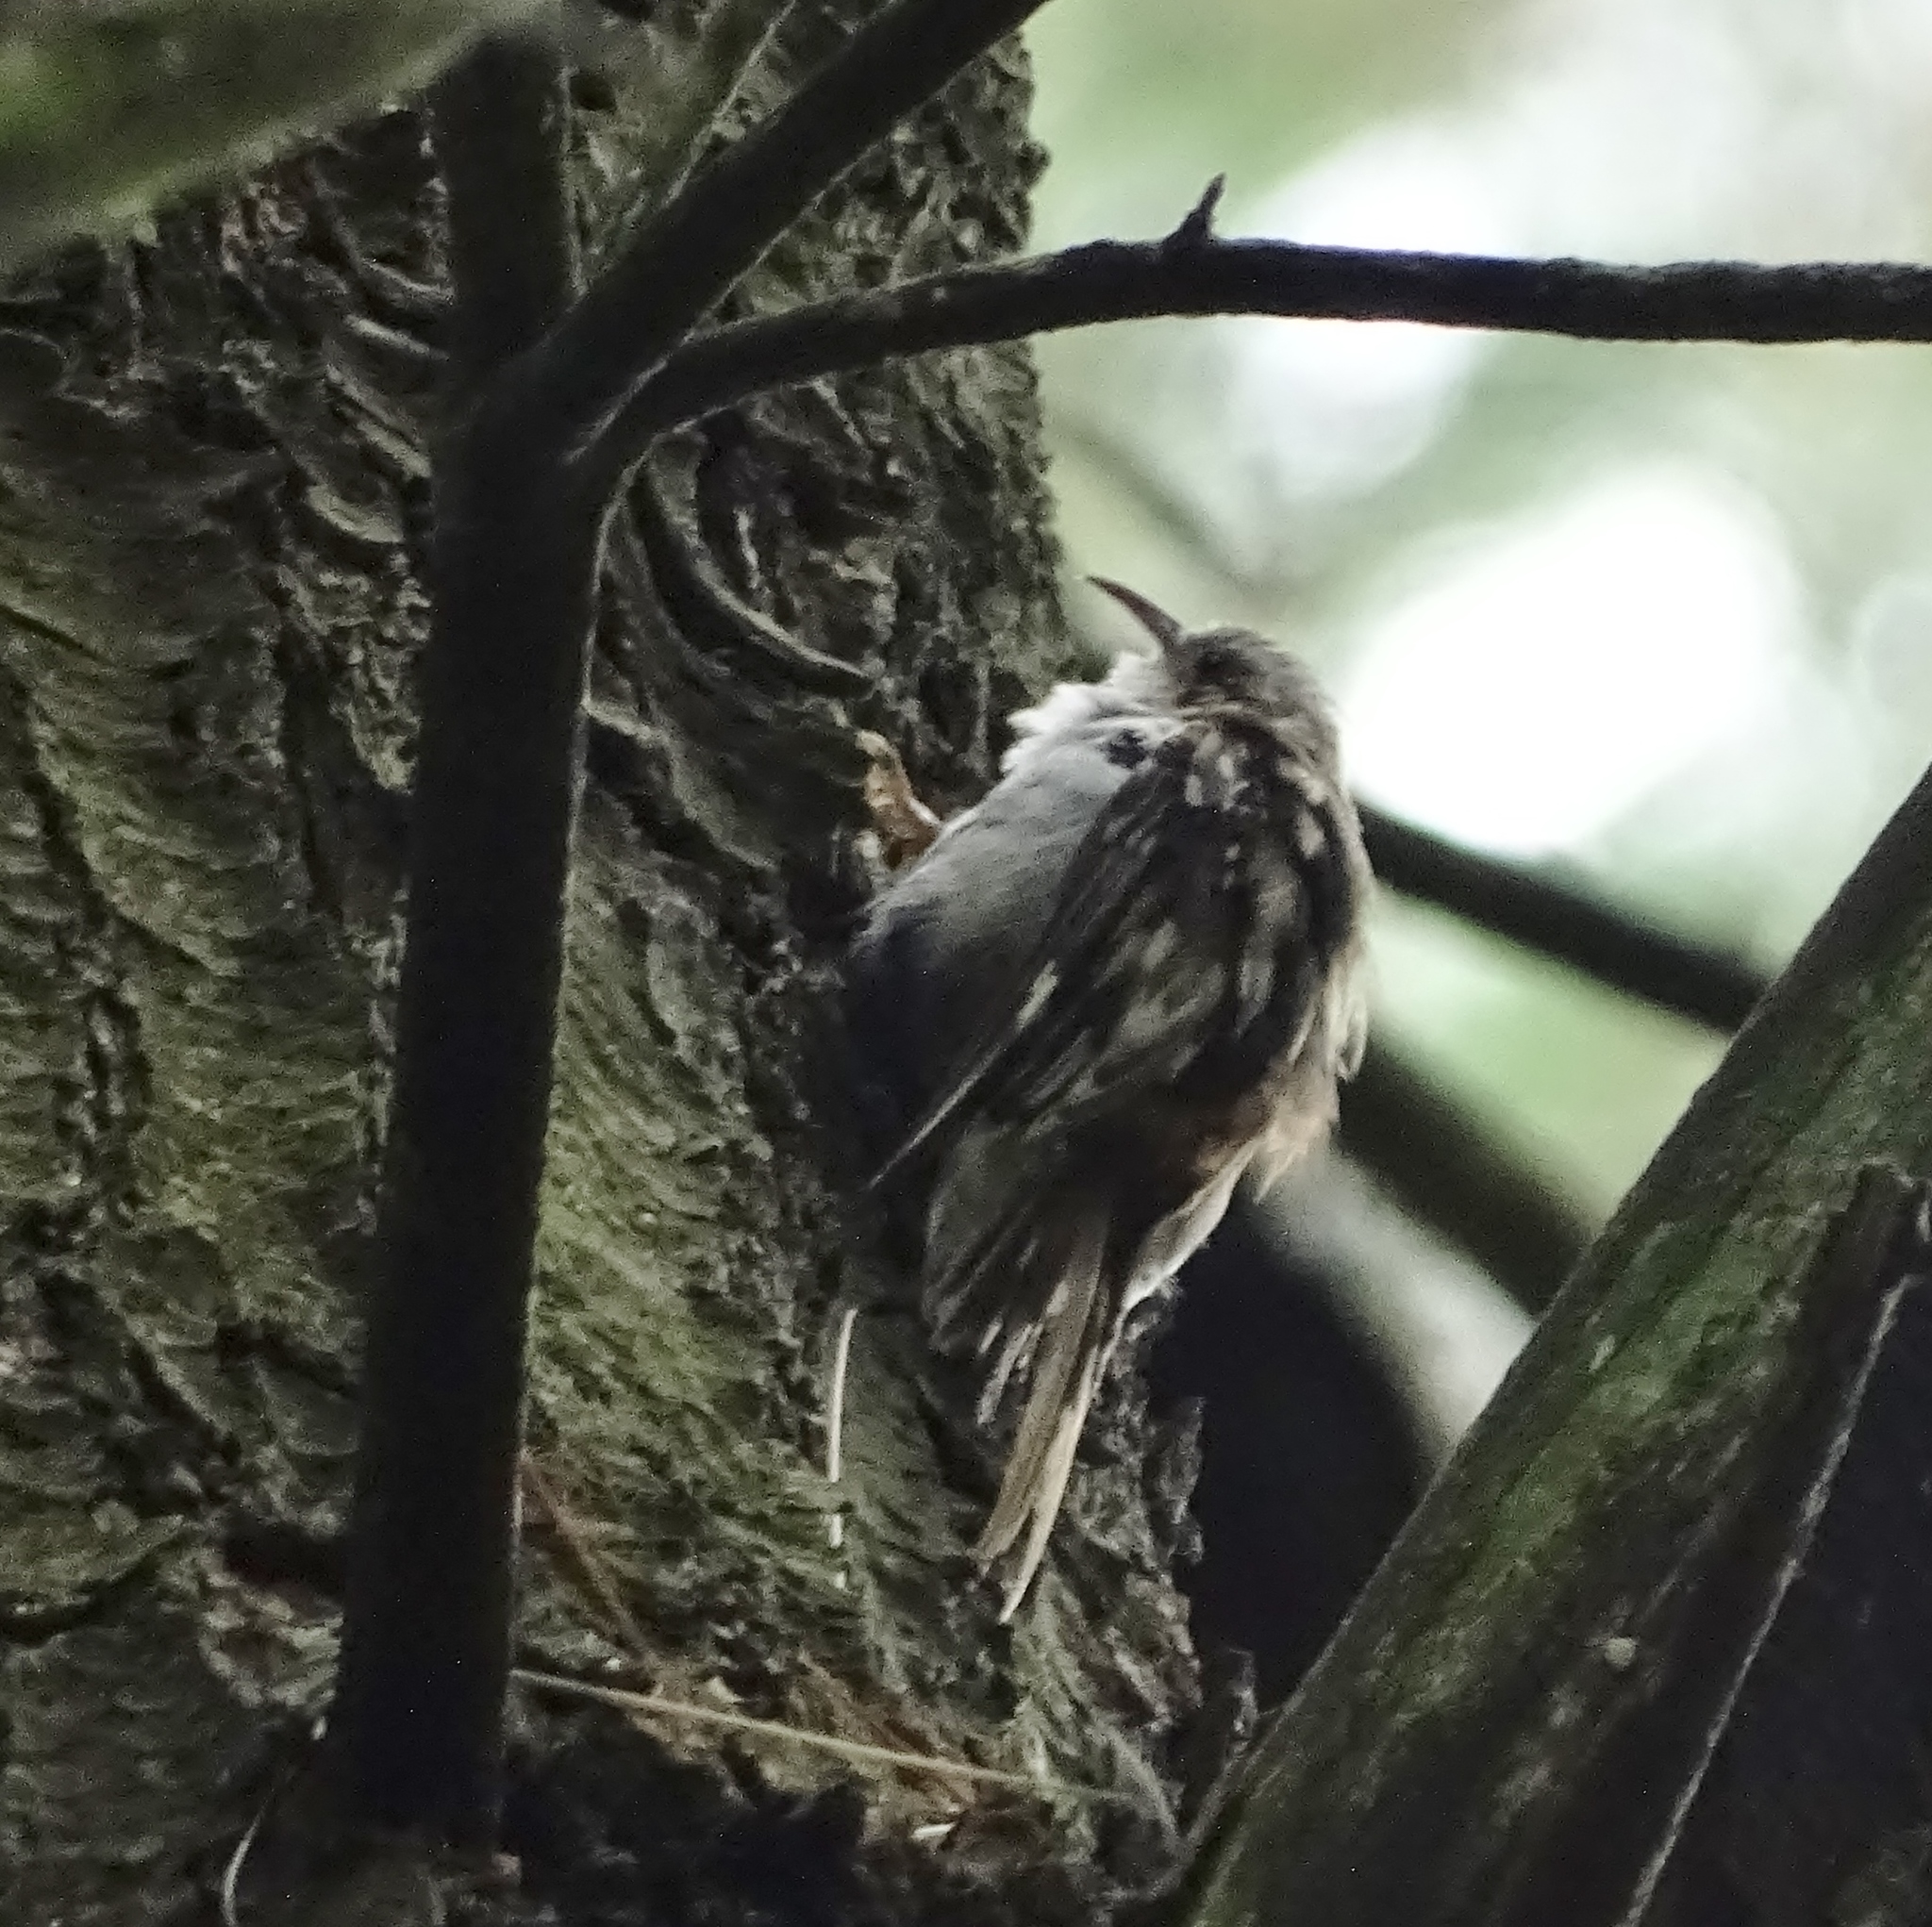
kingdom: Animalia
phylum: Chordata
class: Aves
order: Passeriformes
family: Certhiidae
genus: Certhia
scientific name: Certhia americana
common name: Brown creeper
